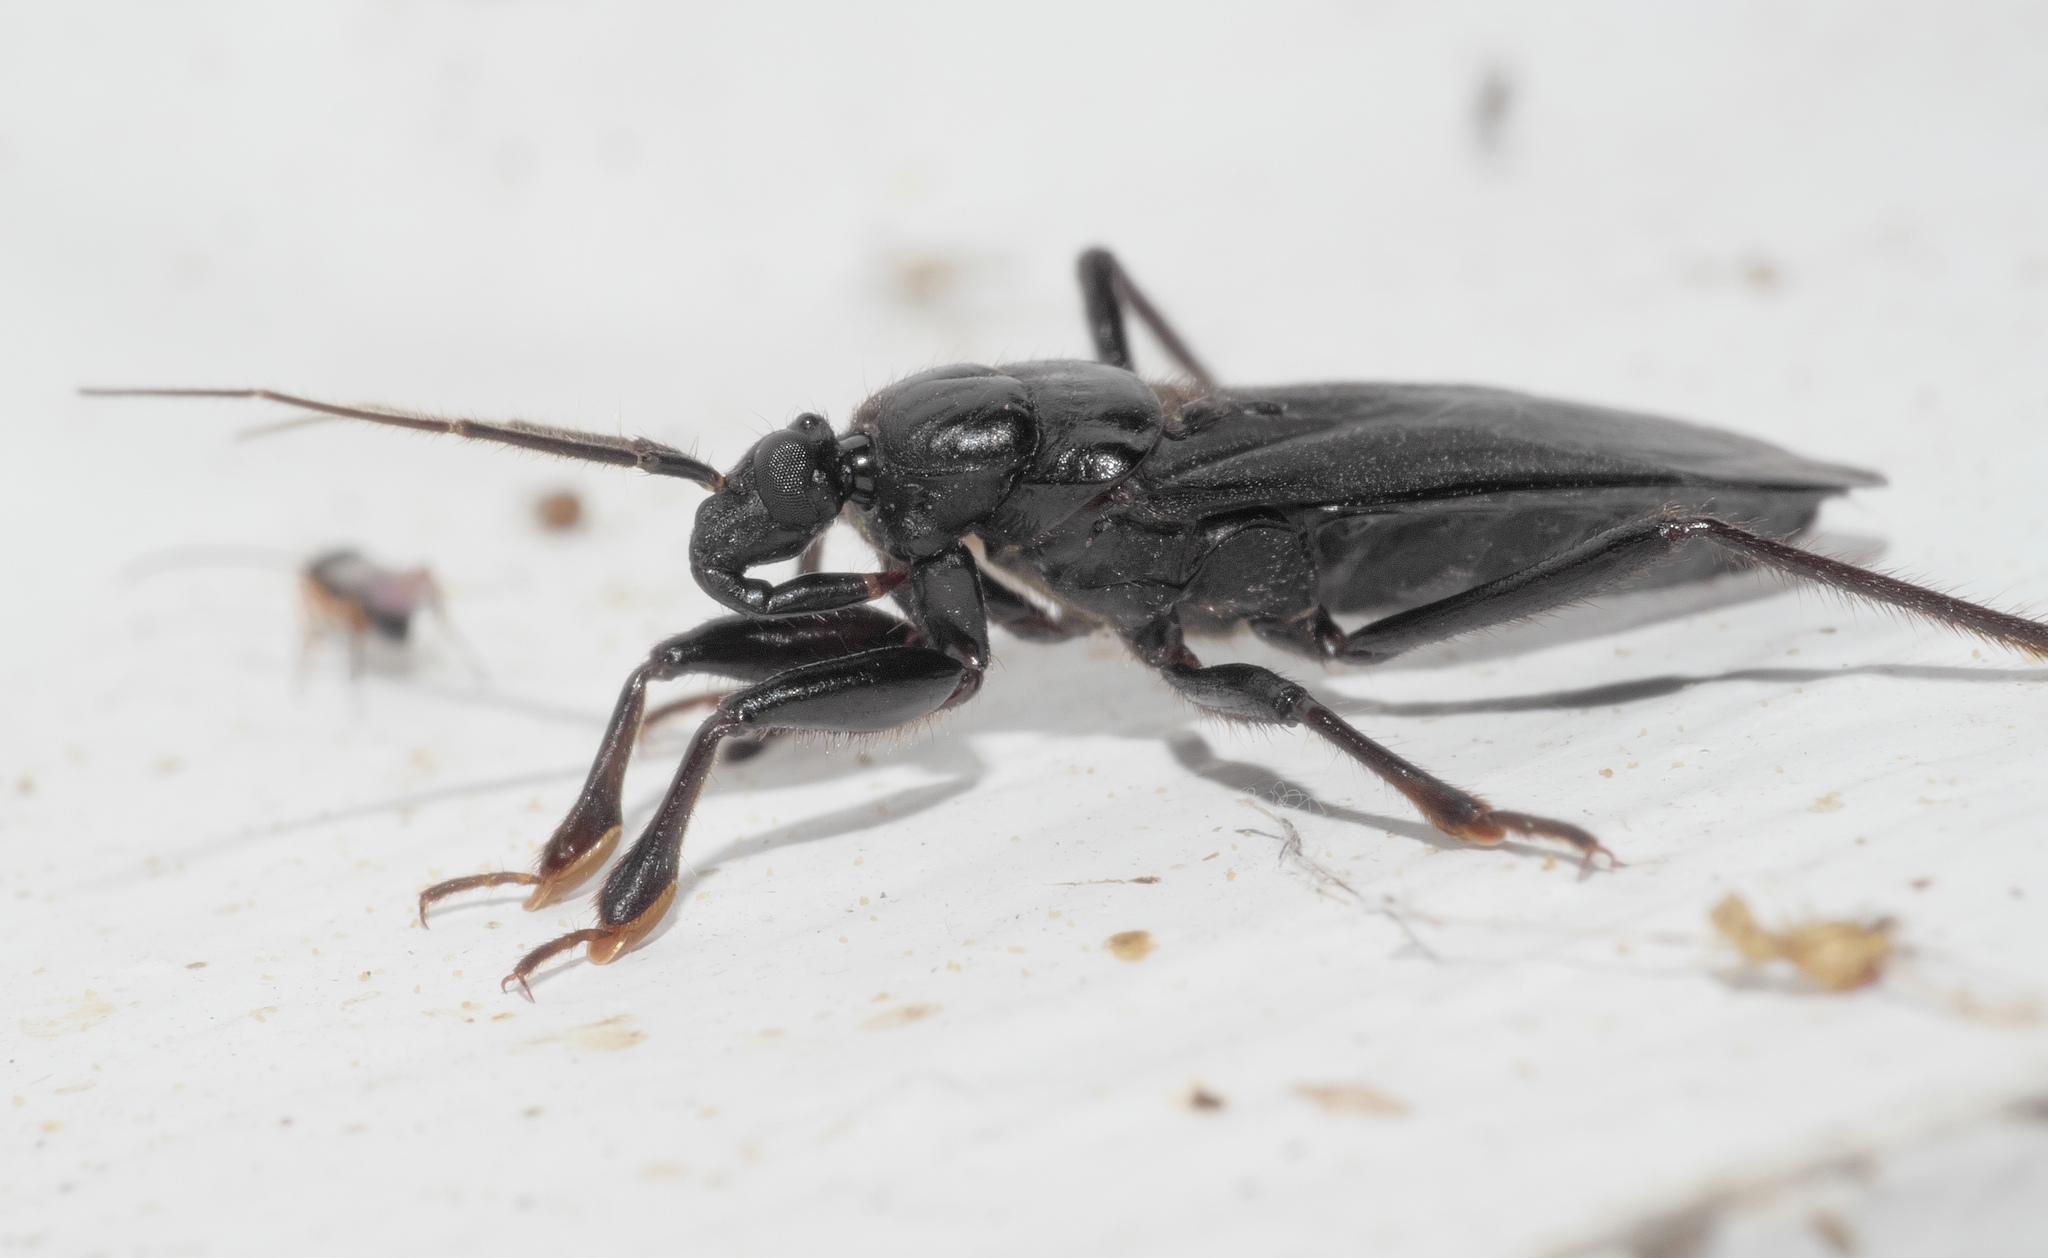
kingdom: Animalia
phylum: Arthropoda
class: Insecta
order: Hemiptera
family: Reduviidae
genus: Melanolestes
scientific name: Melanolestes picipes
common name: Assassin bug
